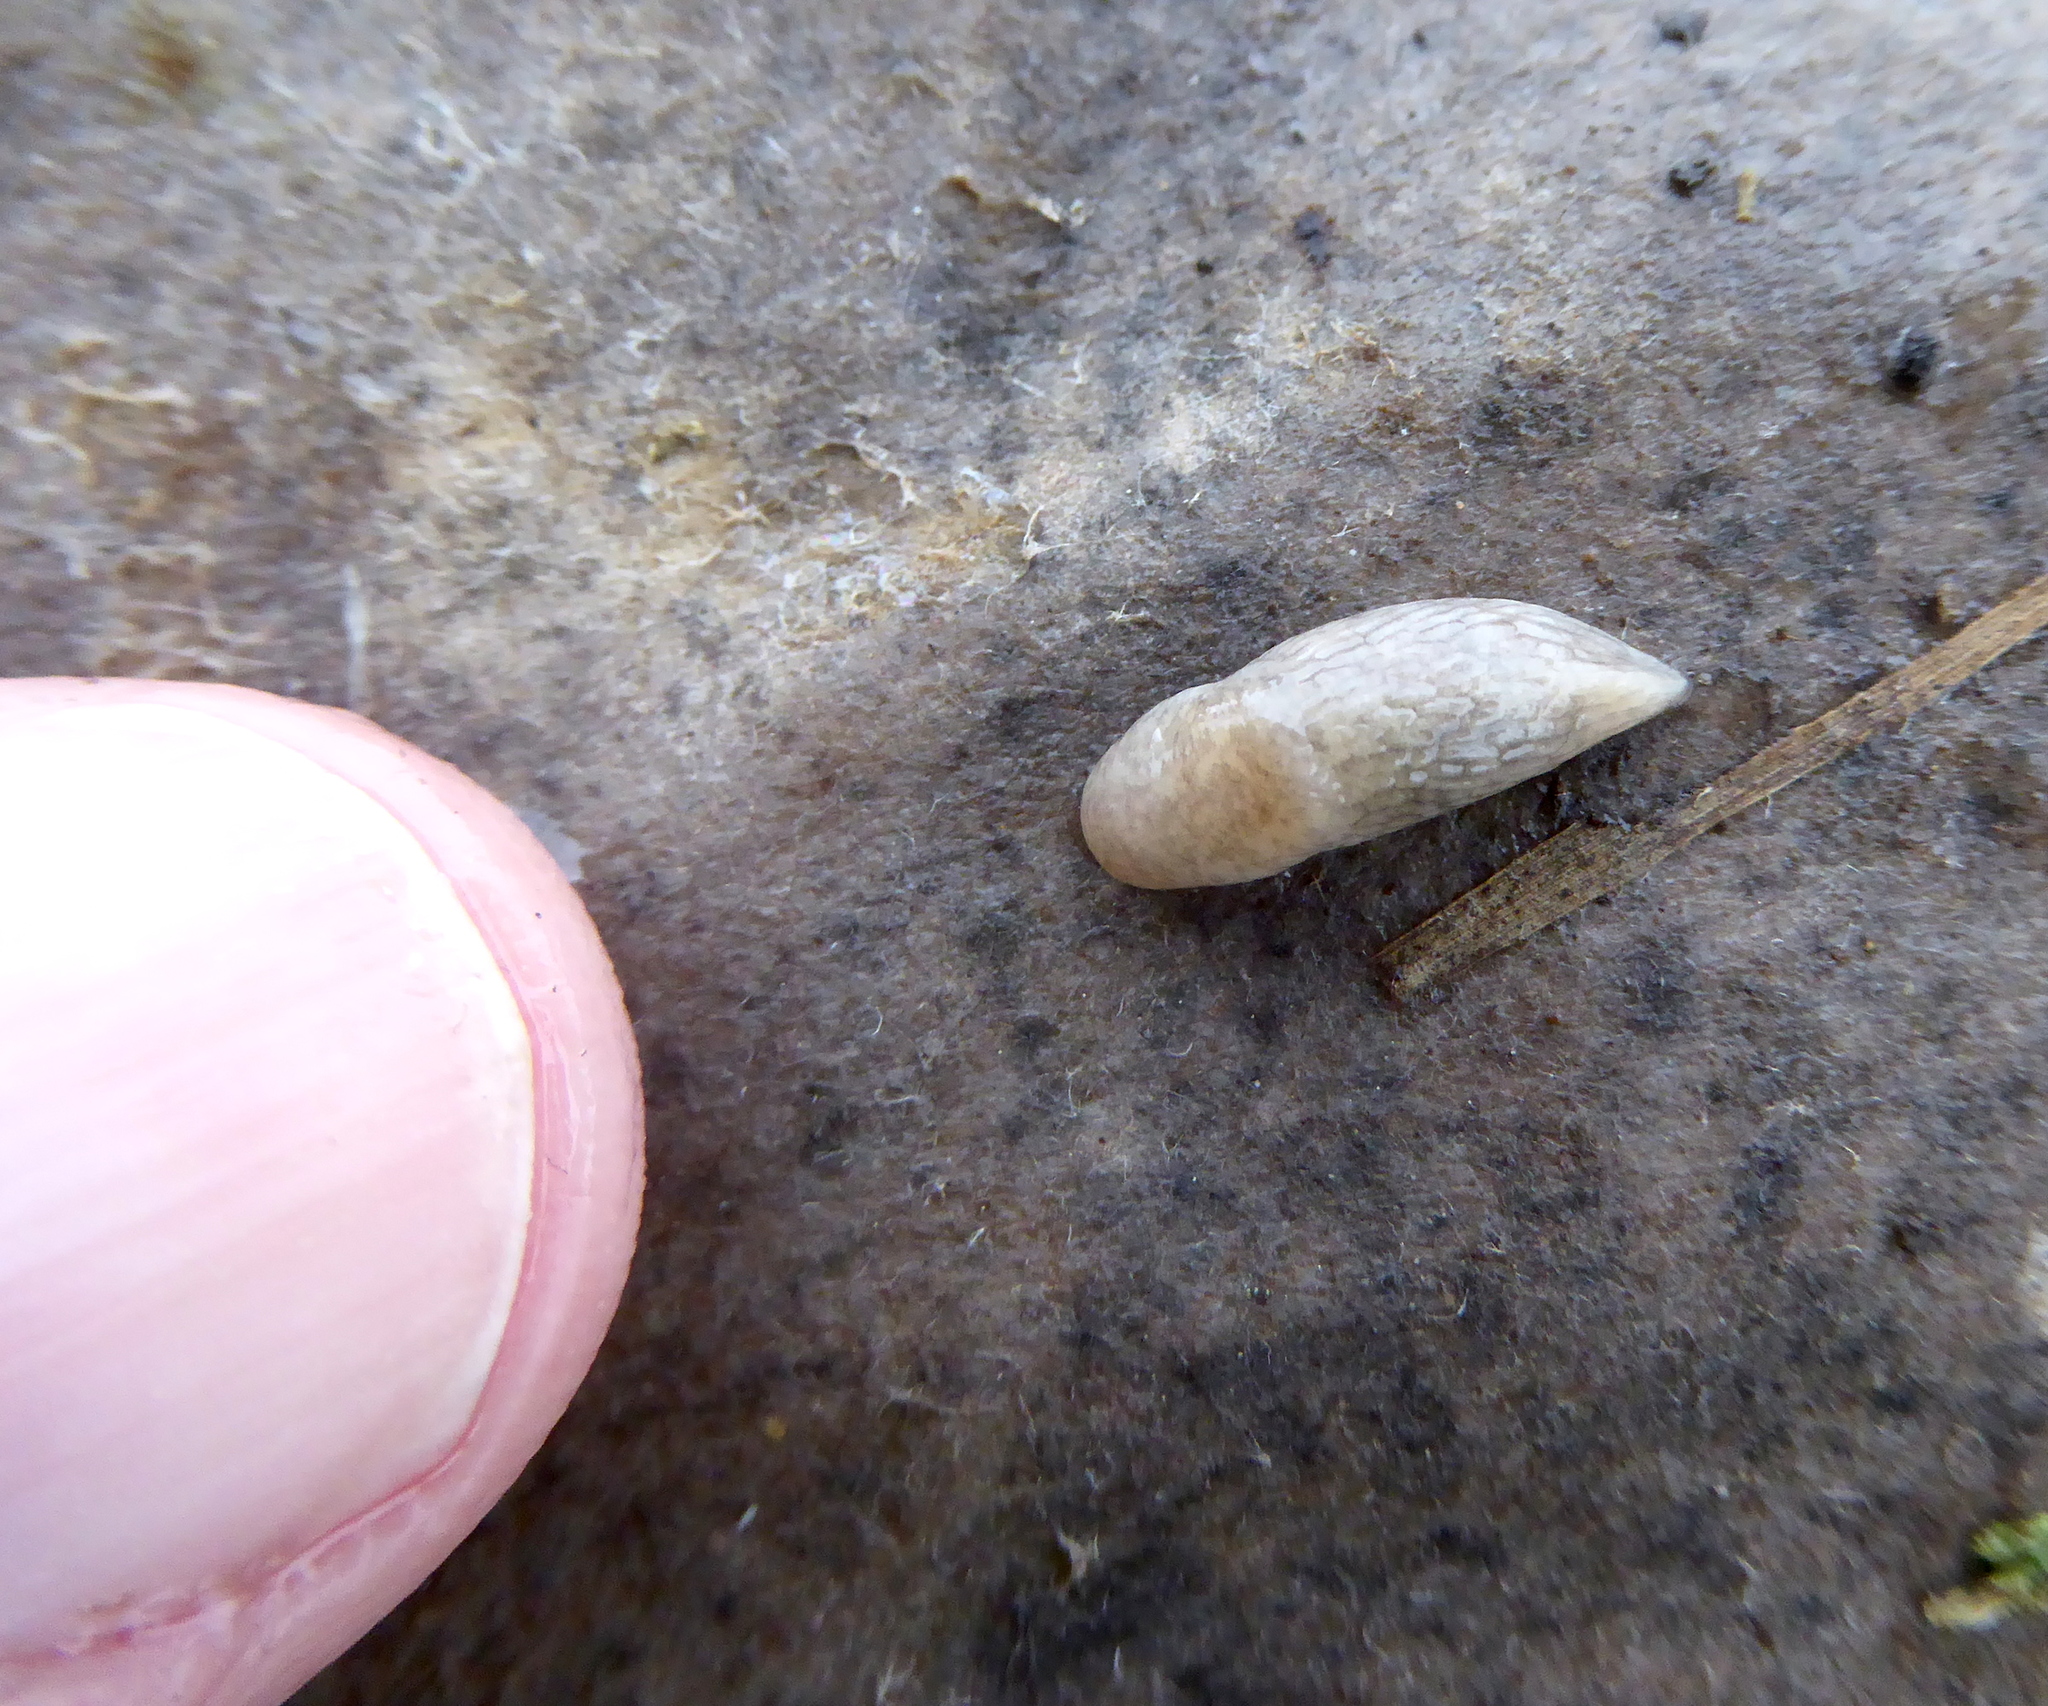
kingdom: Animalia
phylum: Mollusca
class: Gastropoda
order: Stylommatophora
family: Agriolimacidae
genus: Deroceras
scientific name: Deroceras reticulatum
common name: Gray field slug
